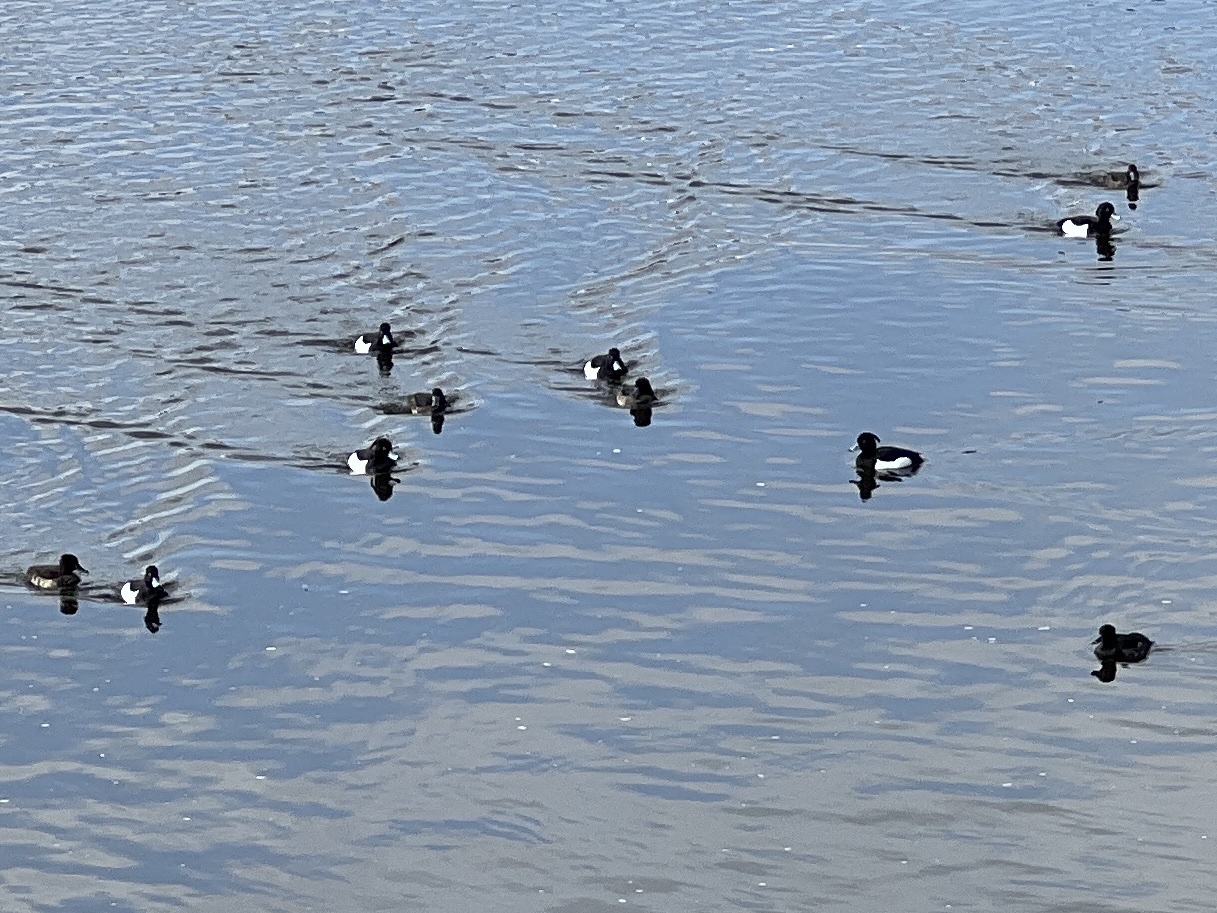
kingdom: Animalia
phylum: Chordata
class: Aves
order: Anseriformes
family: Anatidae
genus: Aythya
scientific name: Aythya fuligula
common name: Tufted duck
